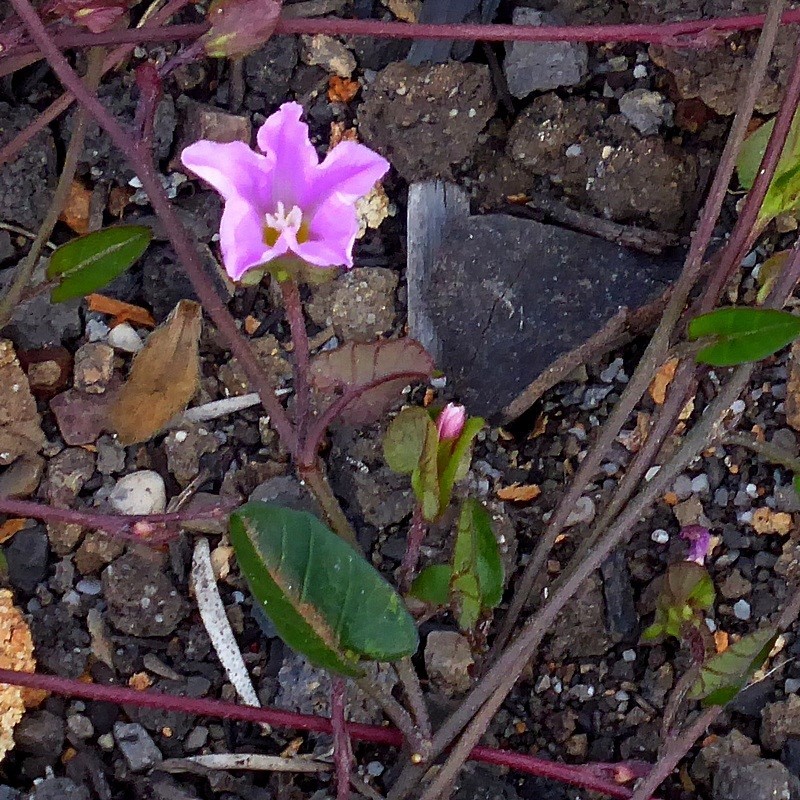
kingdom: Plantae
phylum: Tracheophyta
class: Magnoliopsida
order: Solanales
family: Convolvulaceae
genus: Polymeria
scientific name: Polymeria calycina
